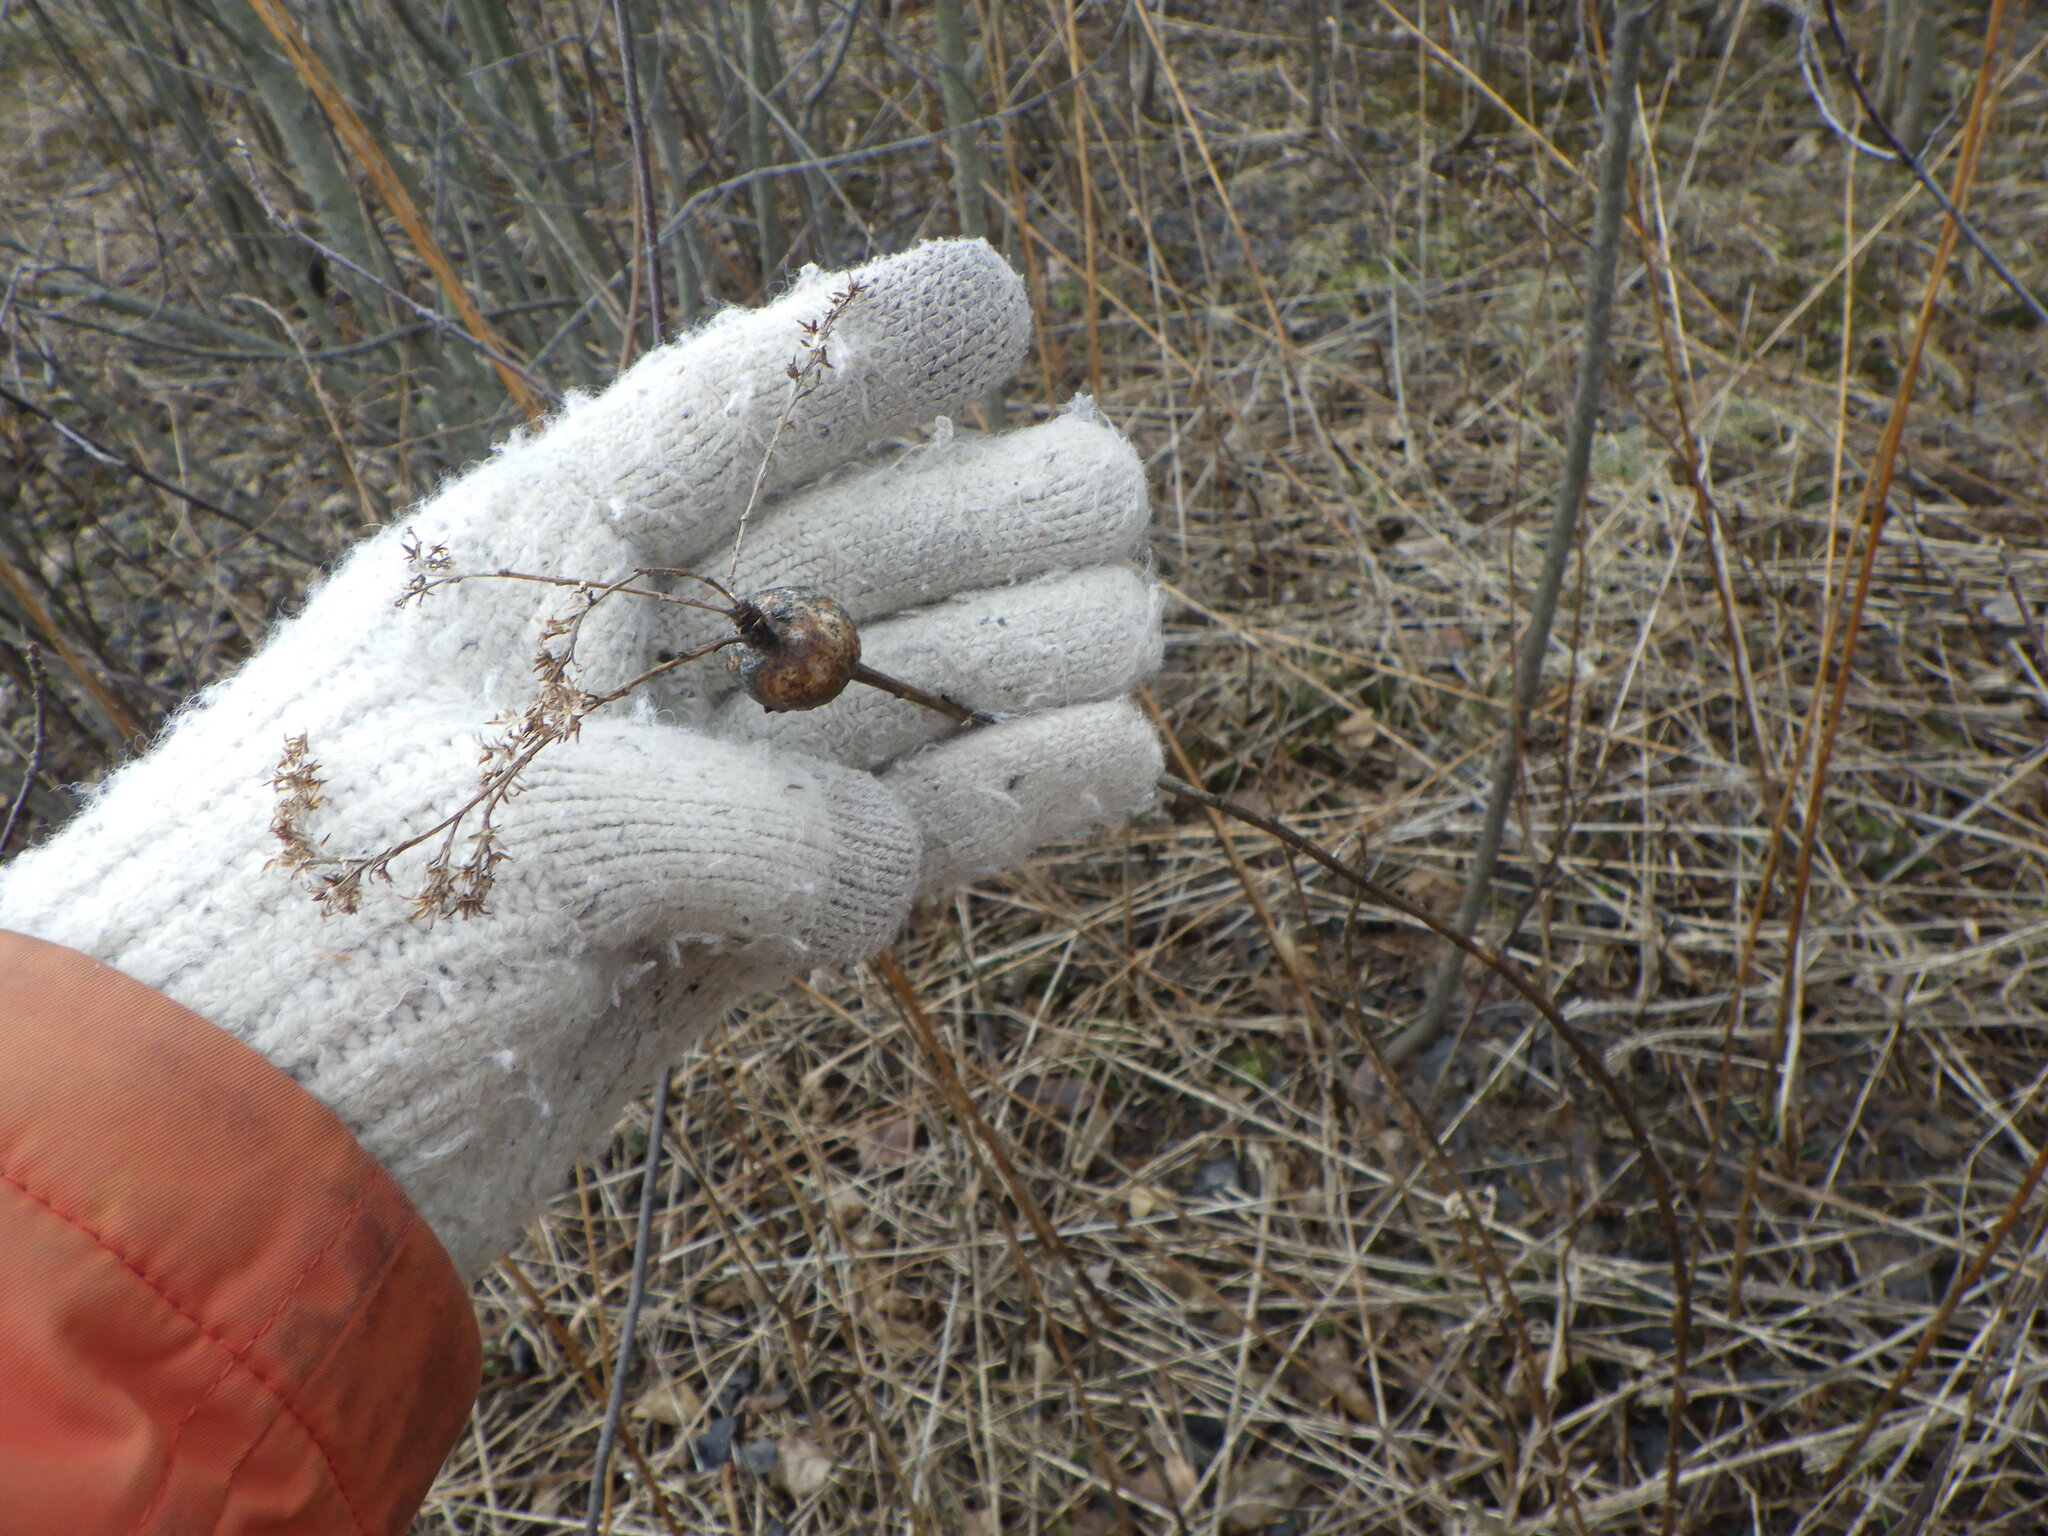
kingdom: Animalia
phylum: Arthropoda
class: Insecta
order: Diptera
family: Tephritidae
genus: Eurosta
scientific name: Eurosta solidaginis
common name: Goldenrod gall fly
